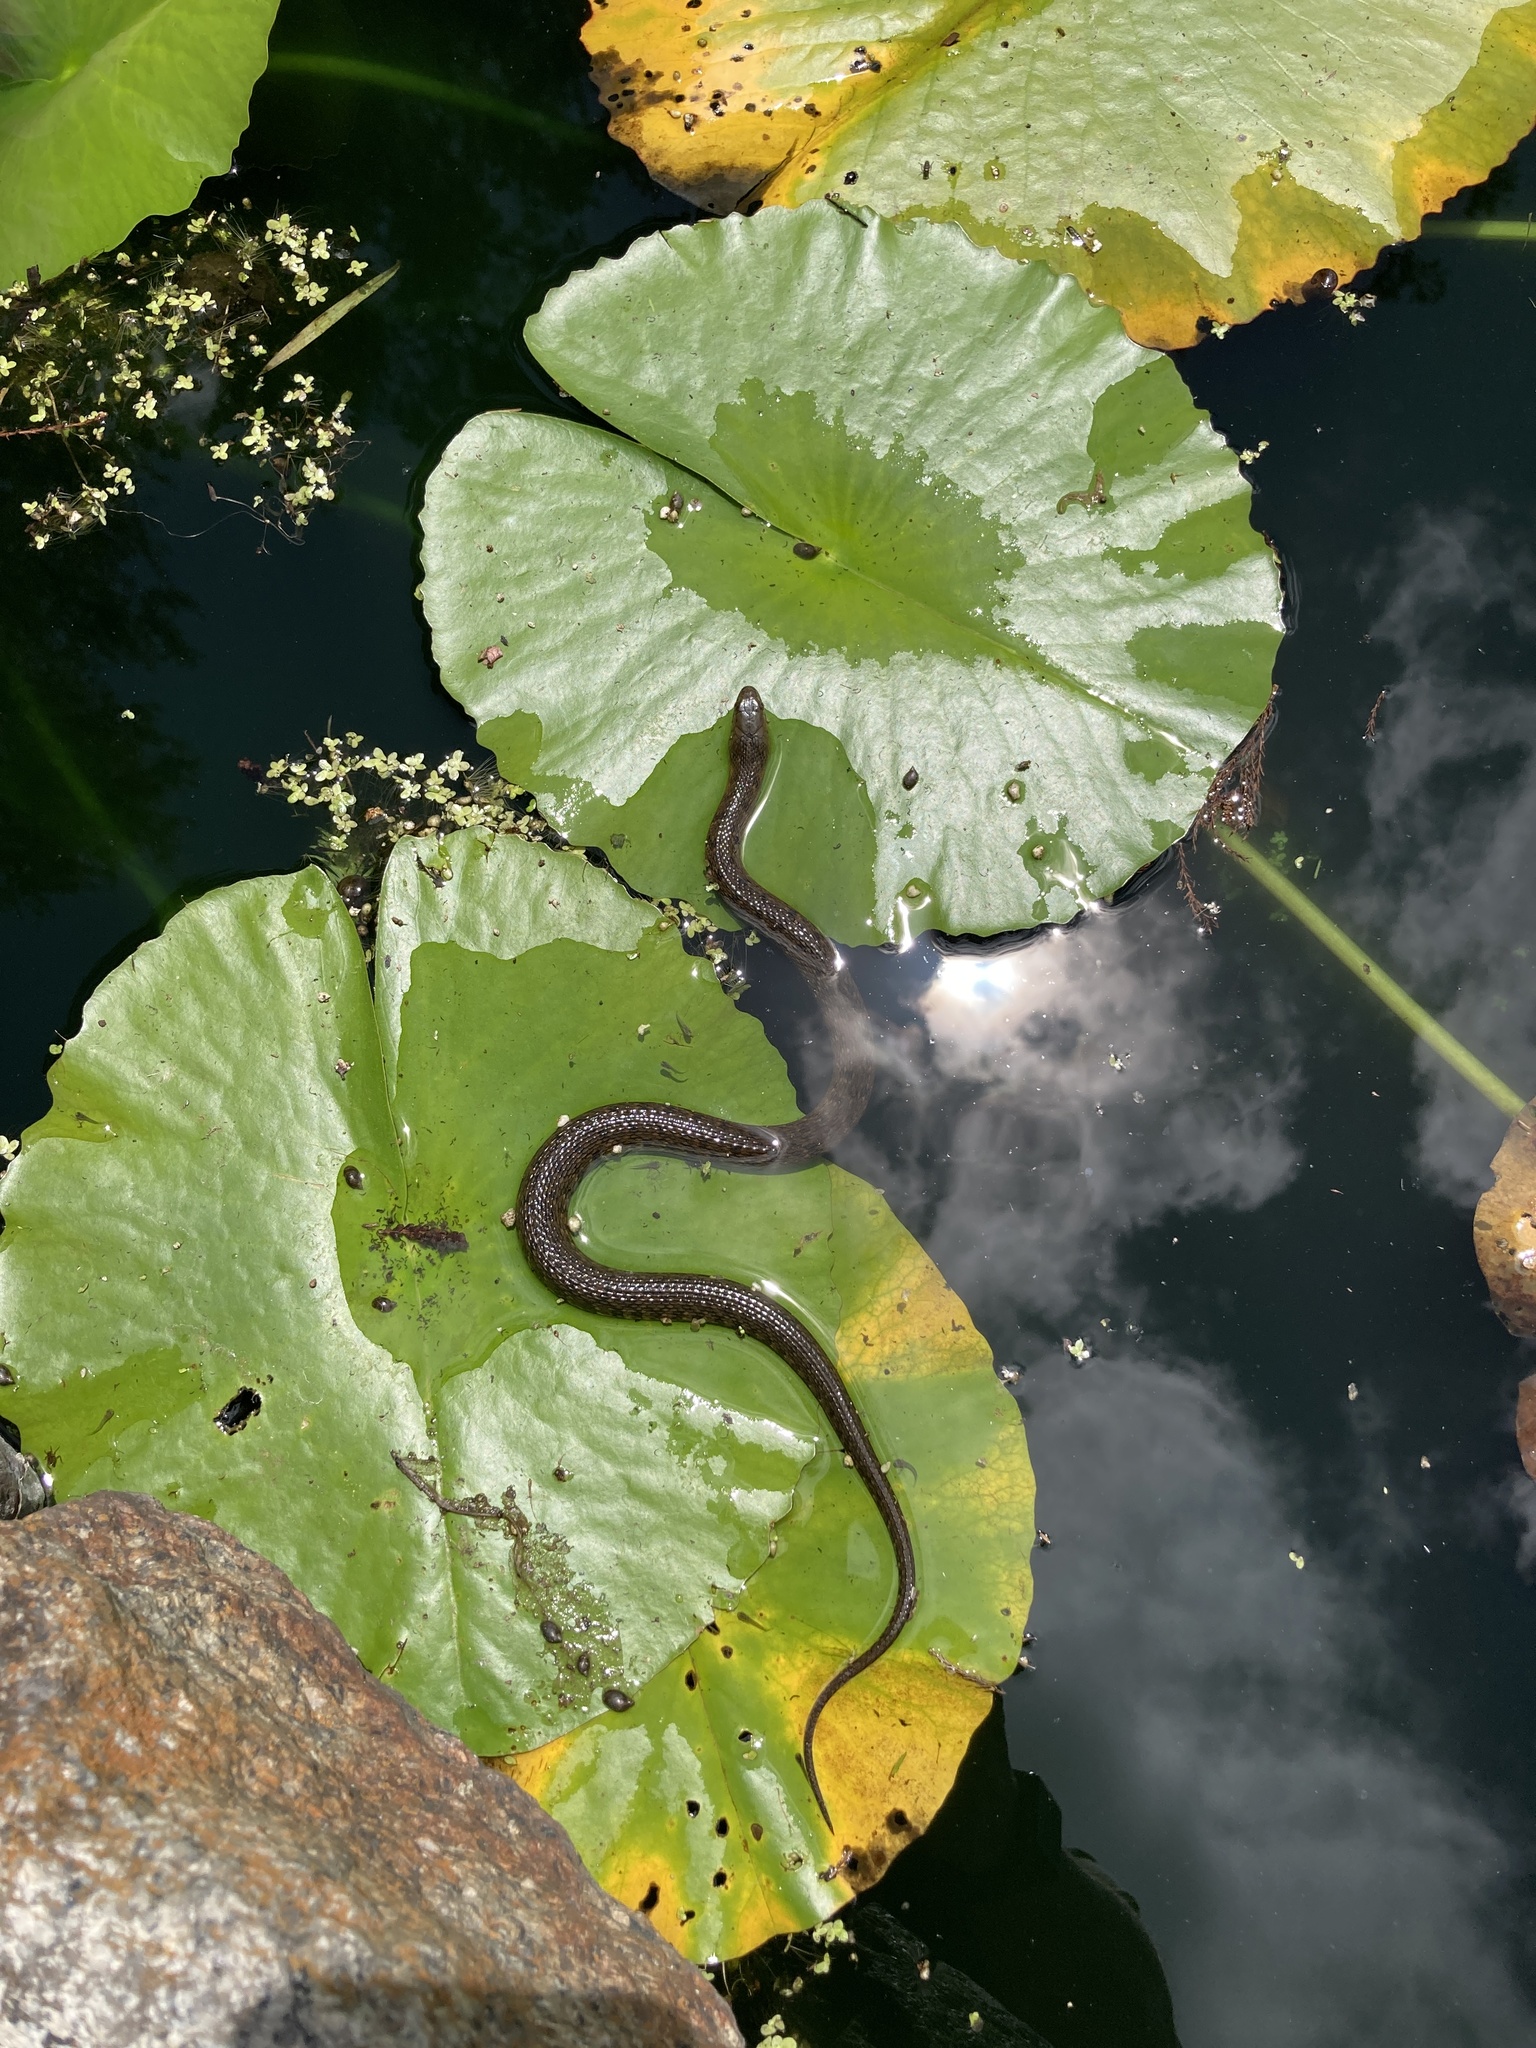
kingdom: Animalia
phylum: Chordata
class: Squamata
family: Colubridae
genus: Nerodia
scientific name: Nerodia cyclopion
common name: Mississippi green water snake
